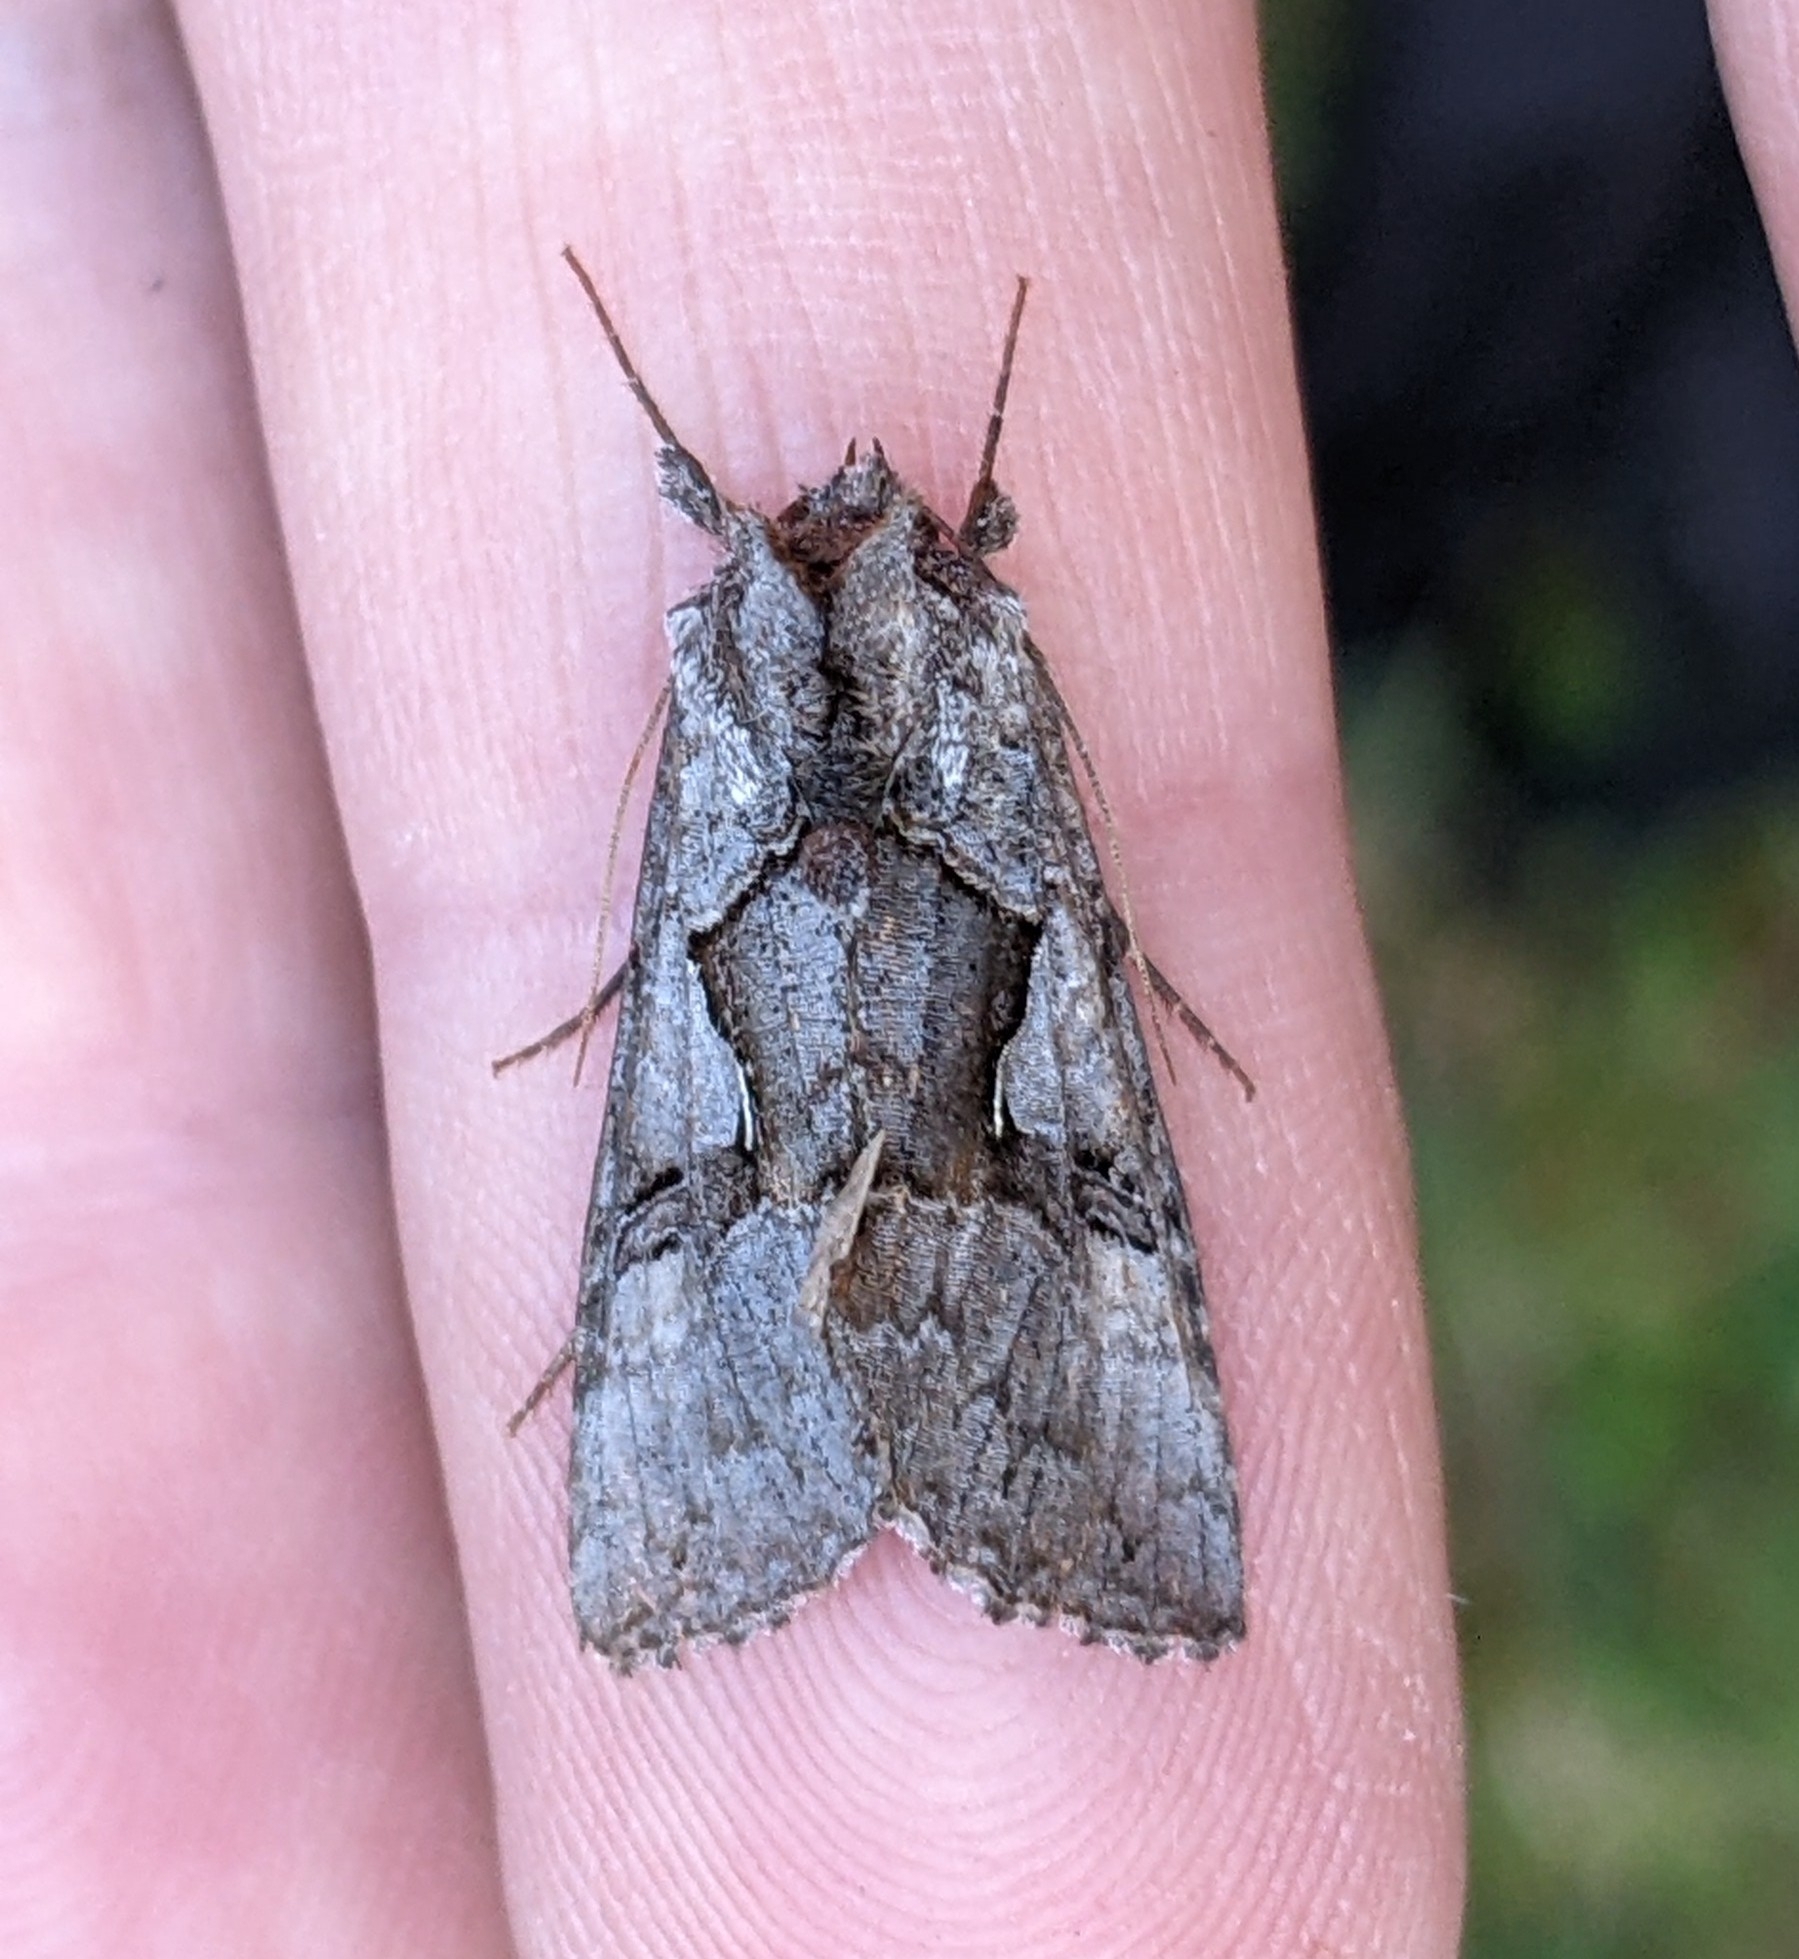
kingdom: Animalia
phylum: Arthropoda
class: Insecta
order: Lepidoptera
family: Noctuidae
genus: Syngrapha
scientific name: Syngrapha epigaea
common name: Epigaea looper moth
